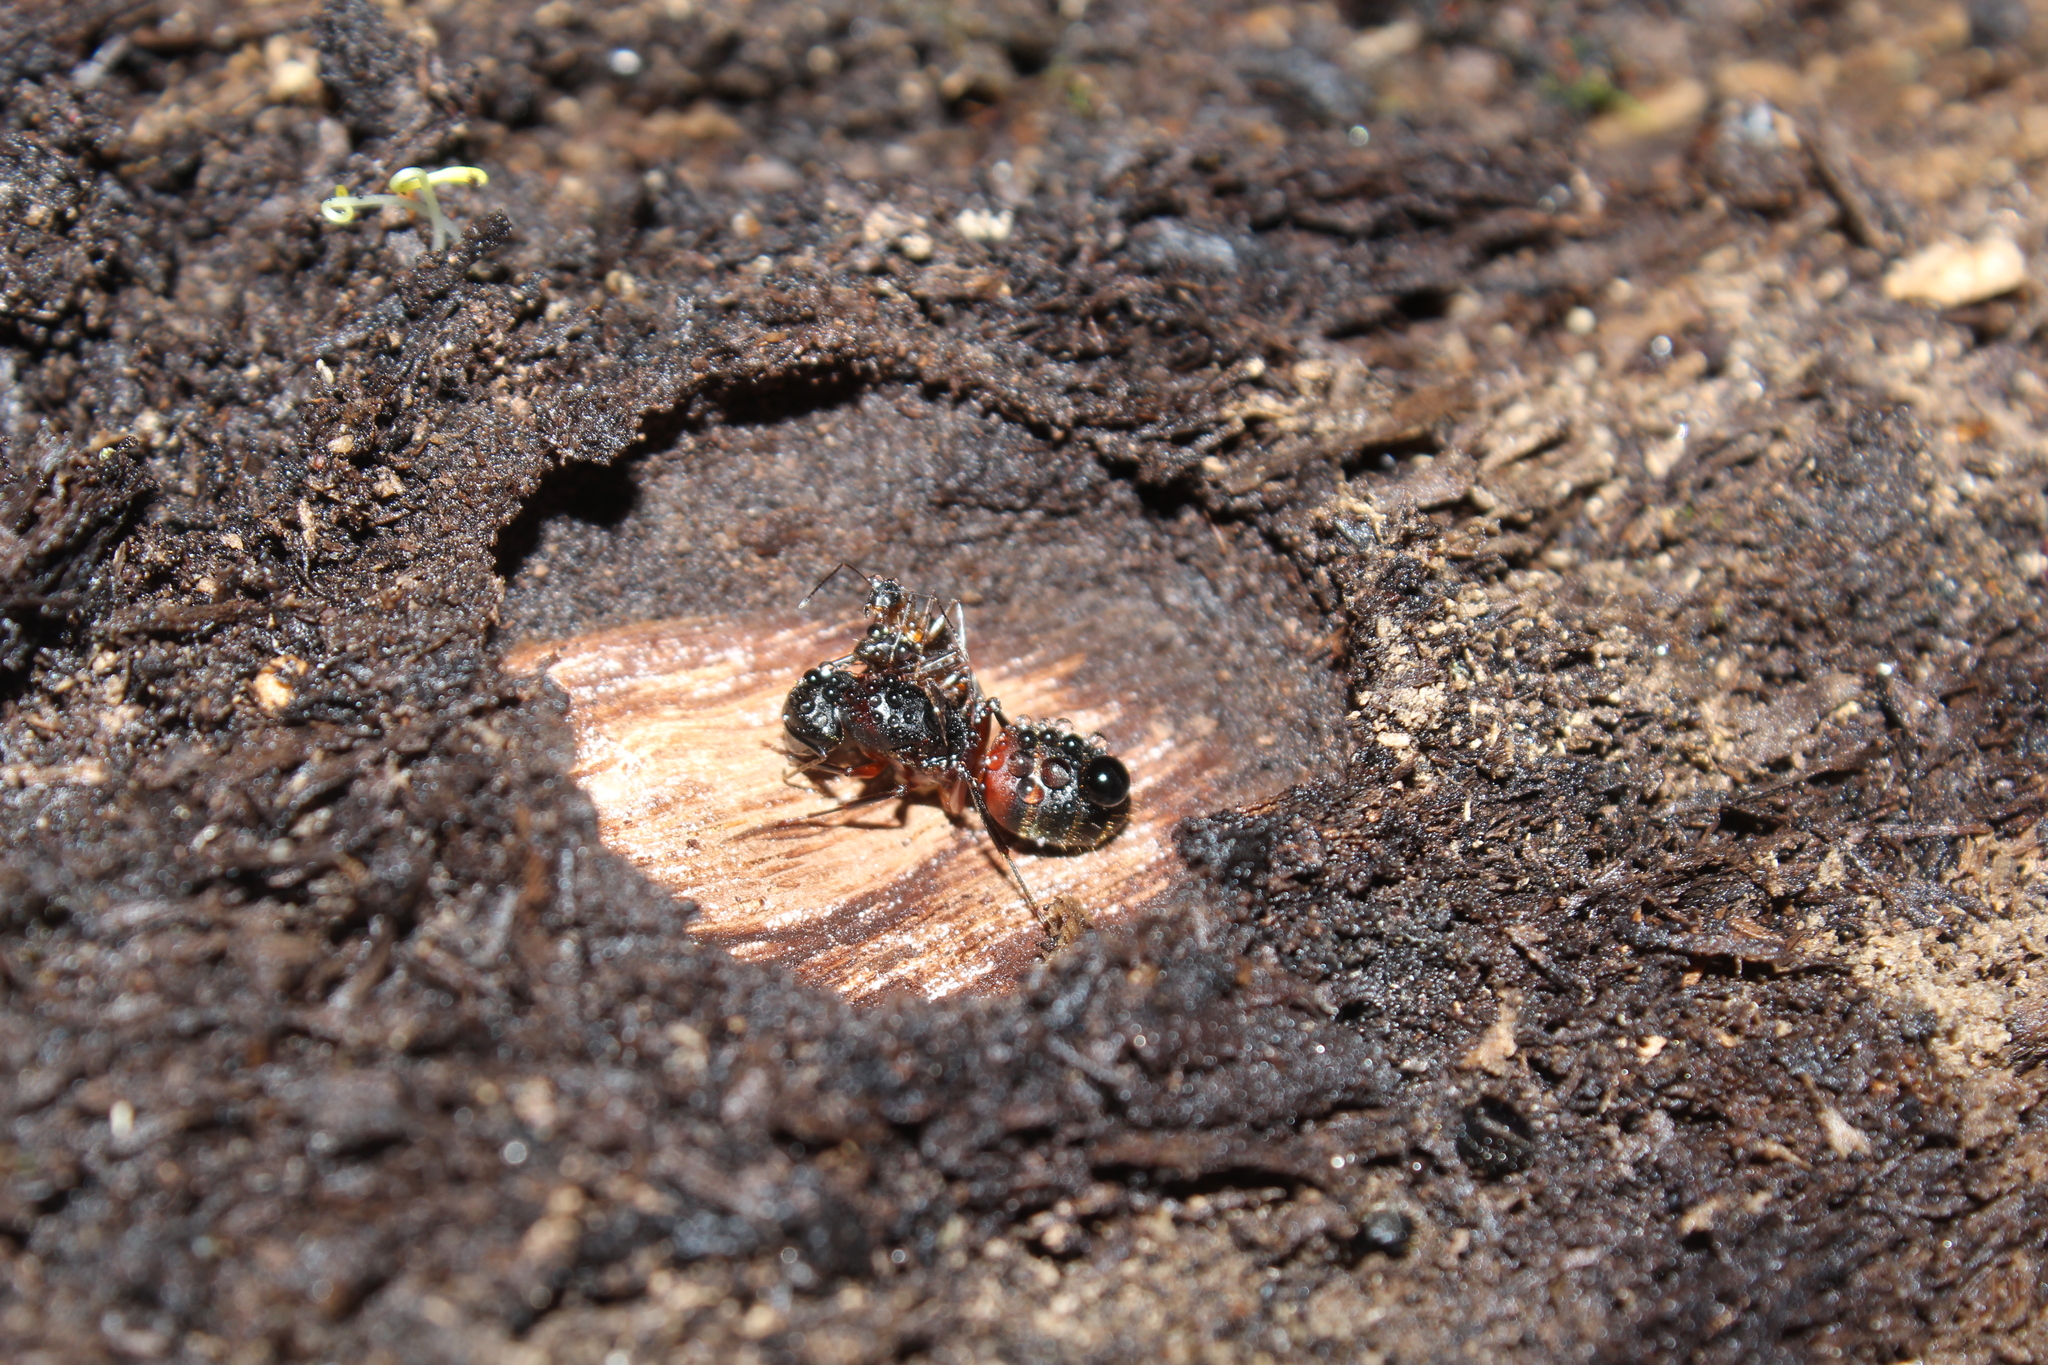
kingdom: Animalia
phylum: Arthropoda
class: Insecta
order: Hymenoptera
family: Formicidae
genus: Camponotus
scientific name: Camponotus chromaiodes
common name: Red carpenter ant
